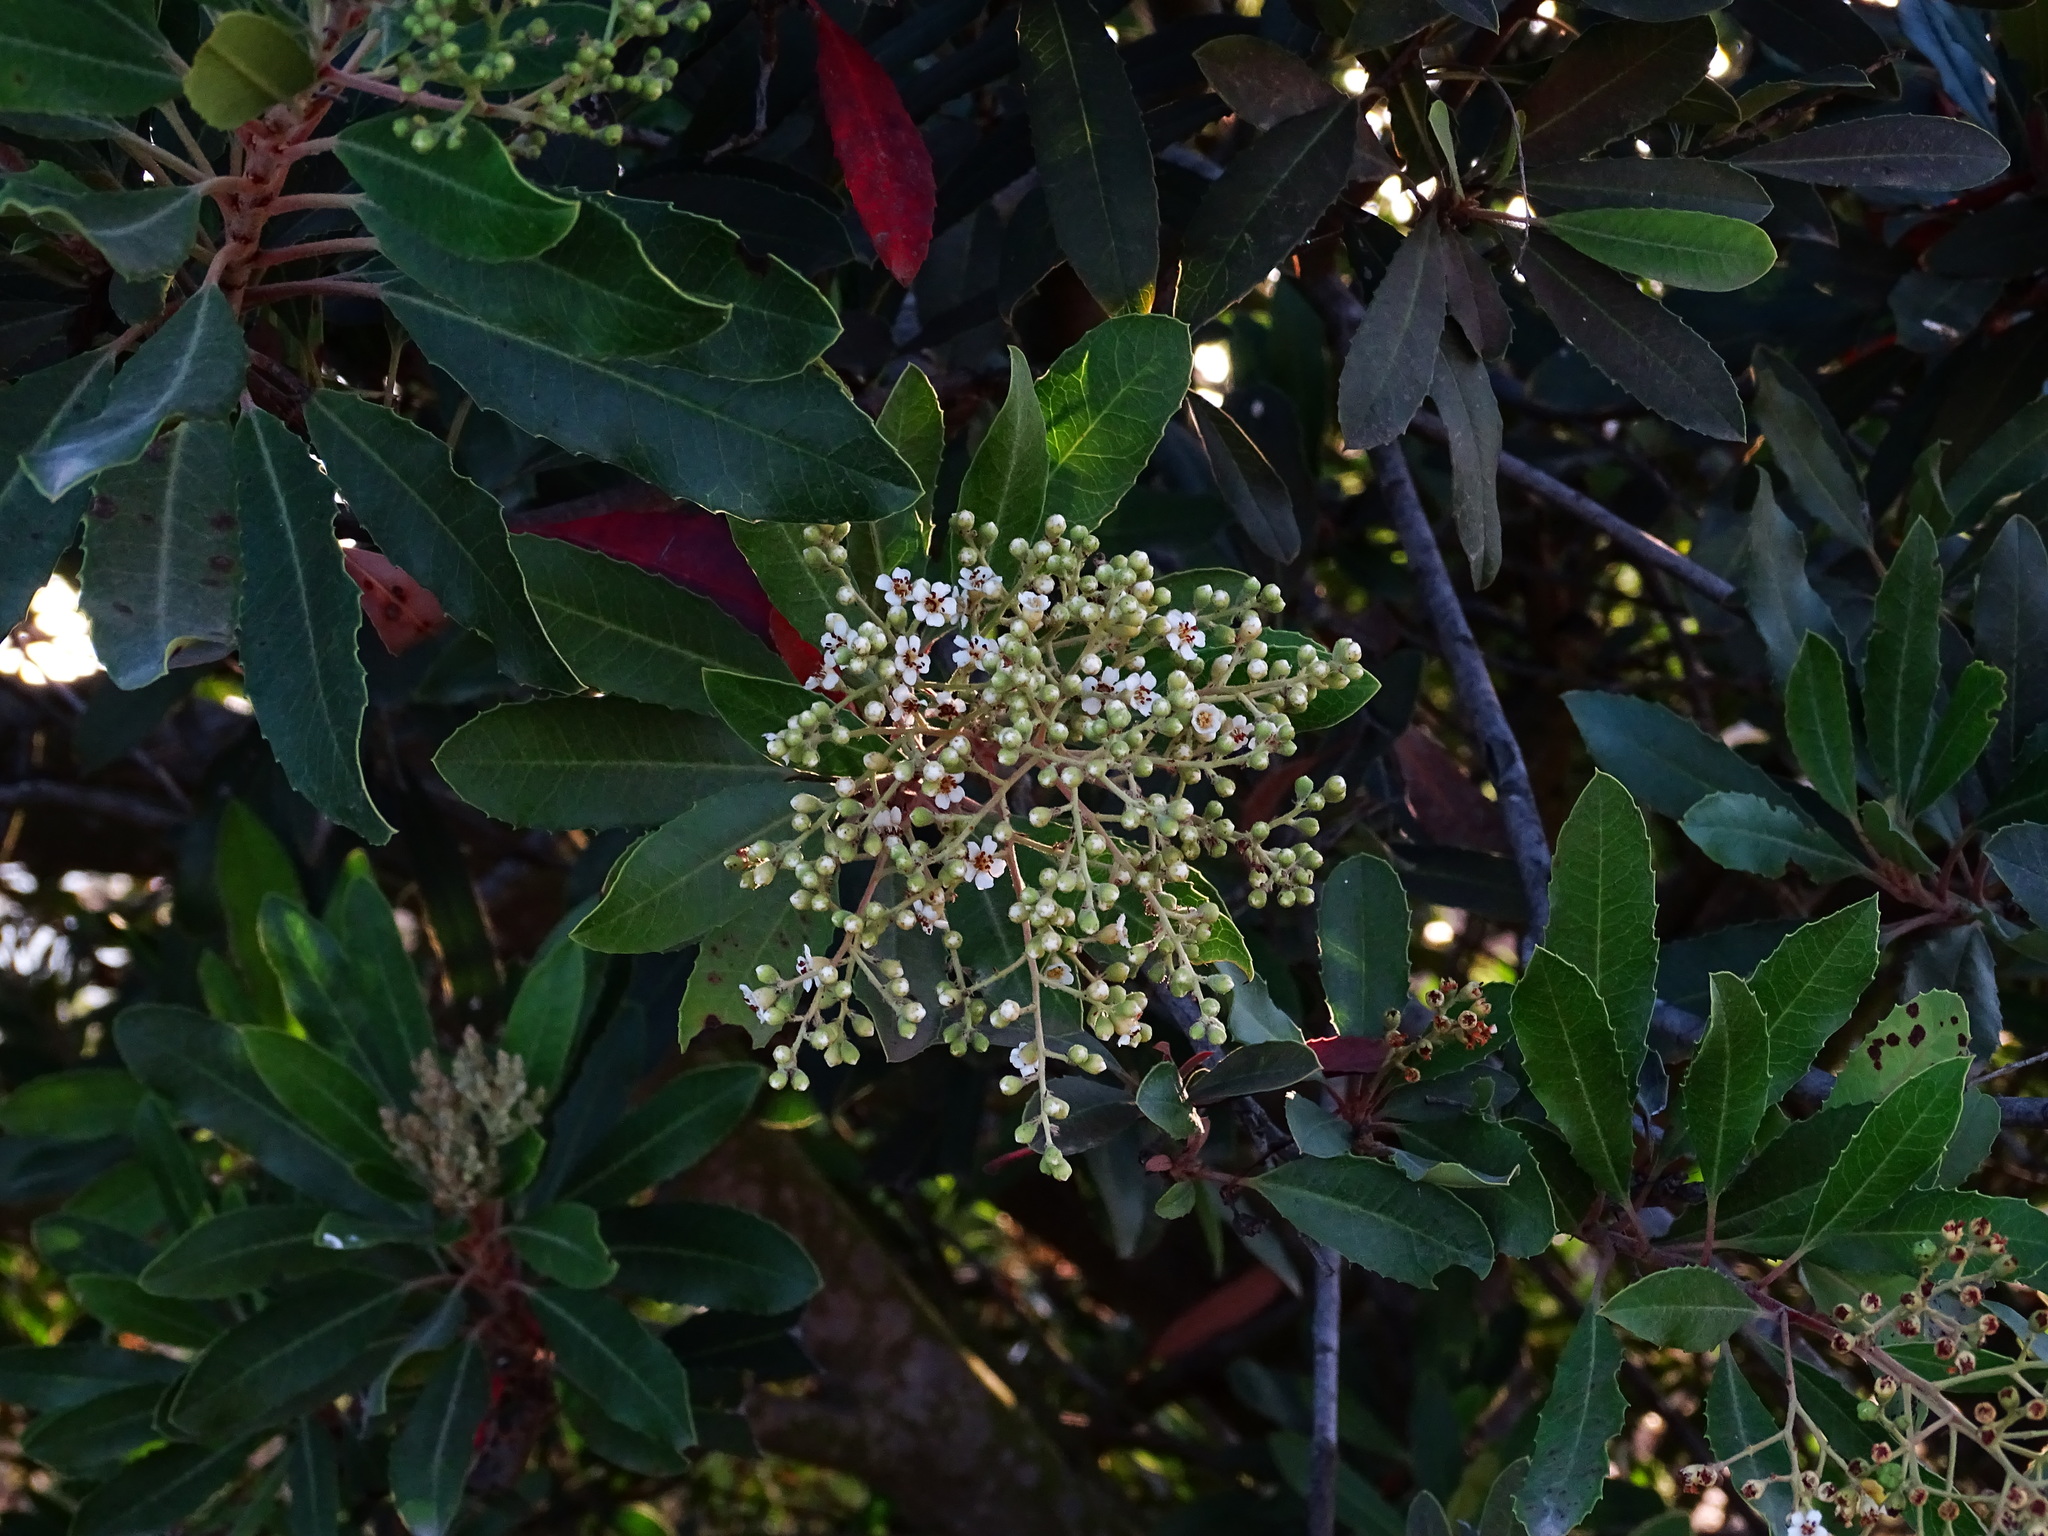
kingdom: Plantae
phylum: Tracheophyta
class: Magnoliopsida
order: Rosales
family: Rosaceae
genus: Heteromeles
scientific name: Heteromeles arbutifolia
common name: California-holly
